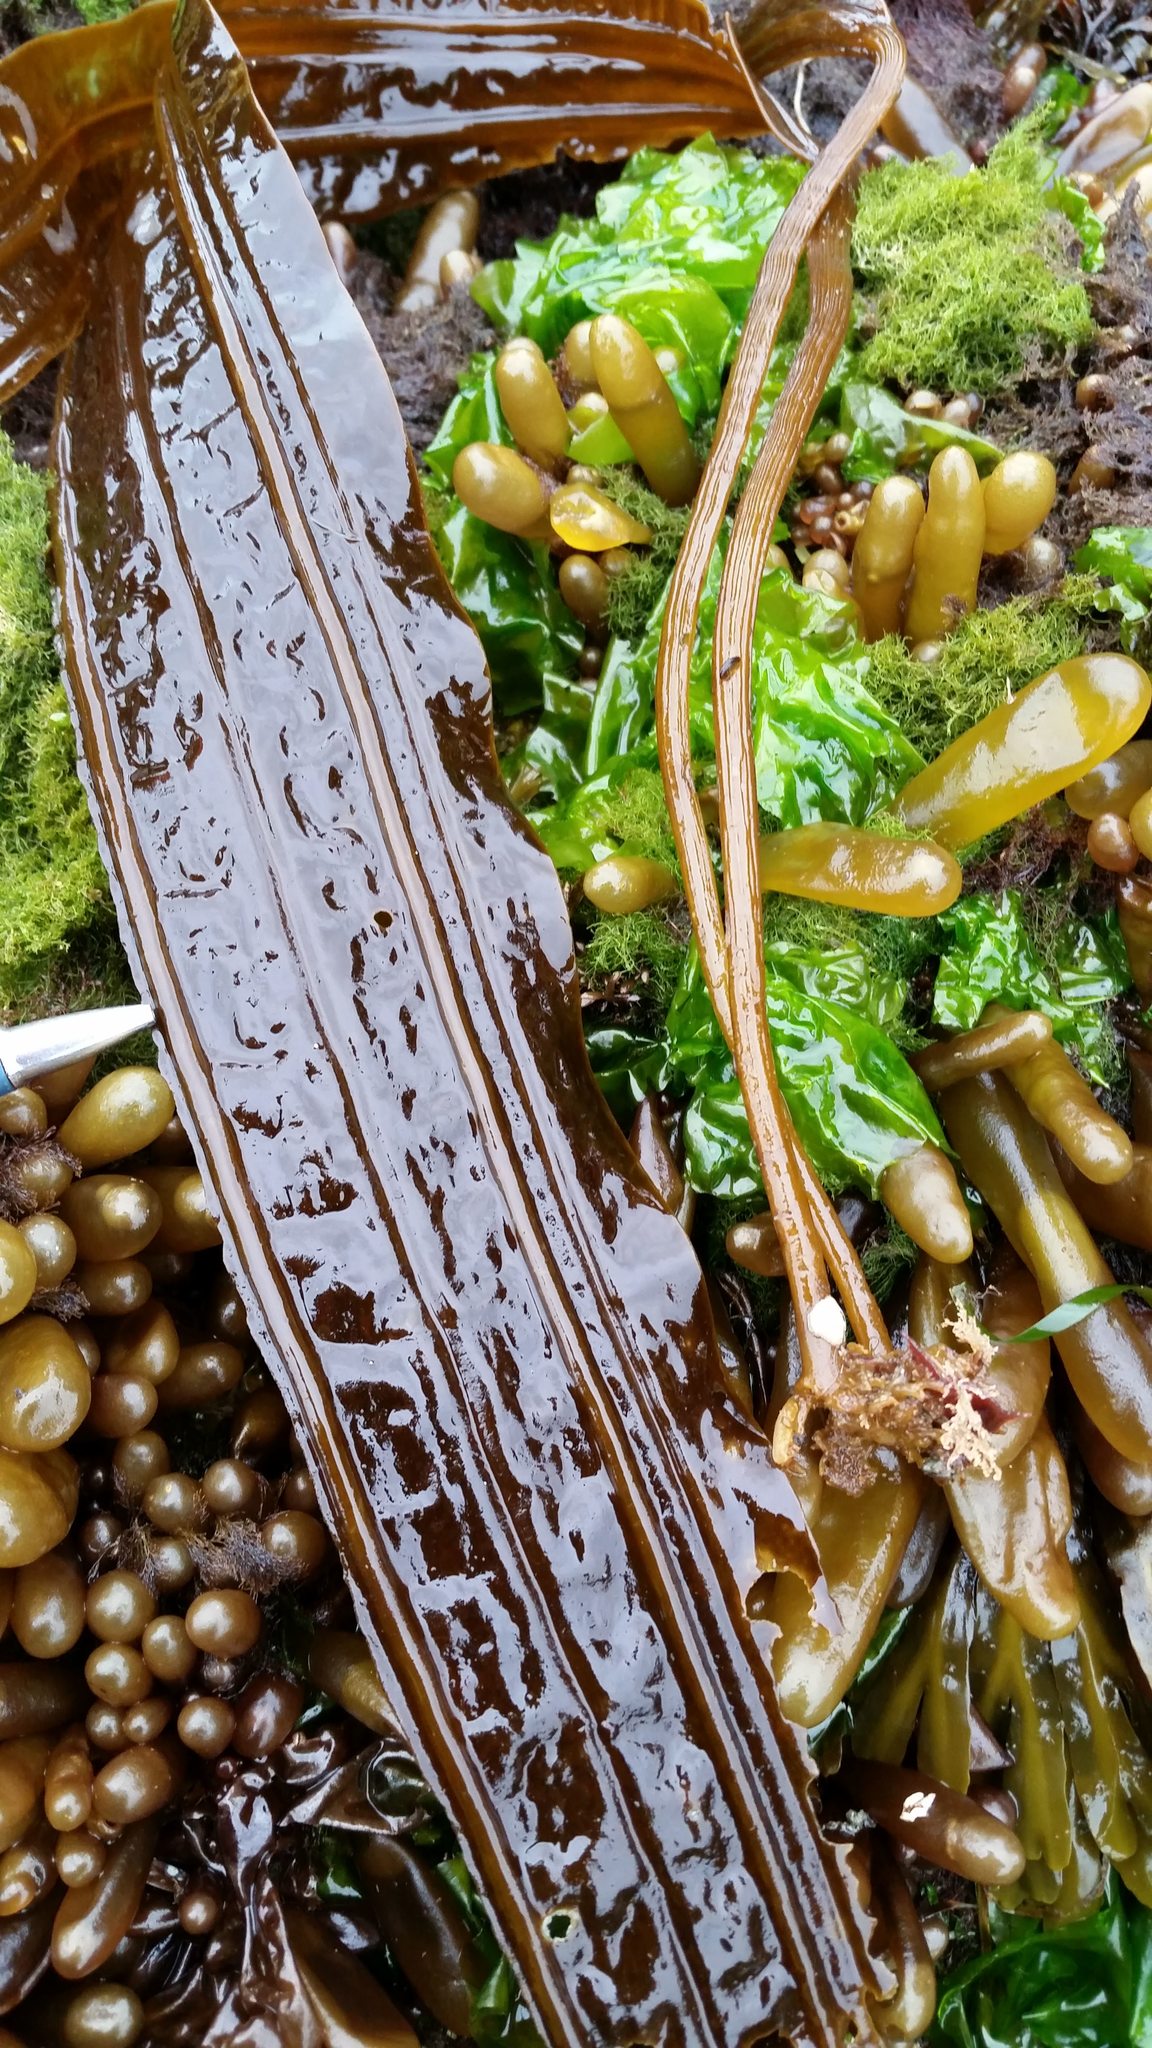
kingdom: Chromista
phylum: Ochrophyta
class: Phaeophyceae
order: Laminariales
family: Costariaceae
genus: Costaria
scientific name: Costaria costata
